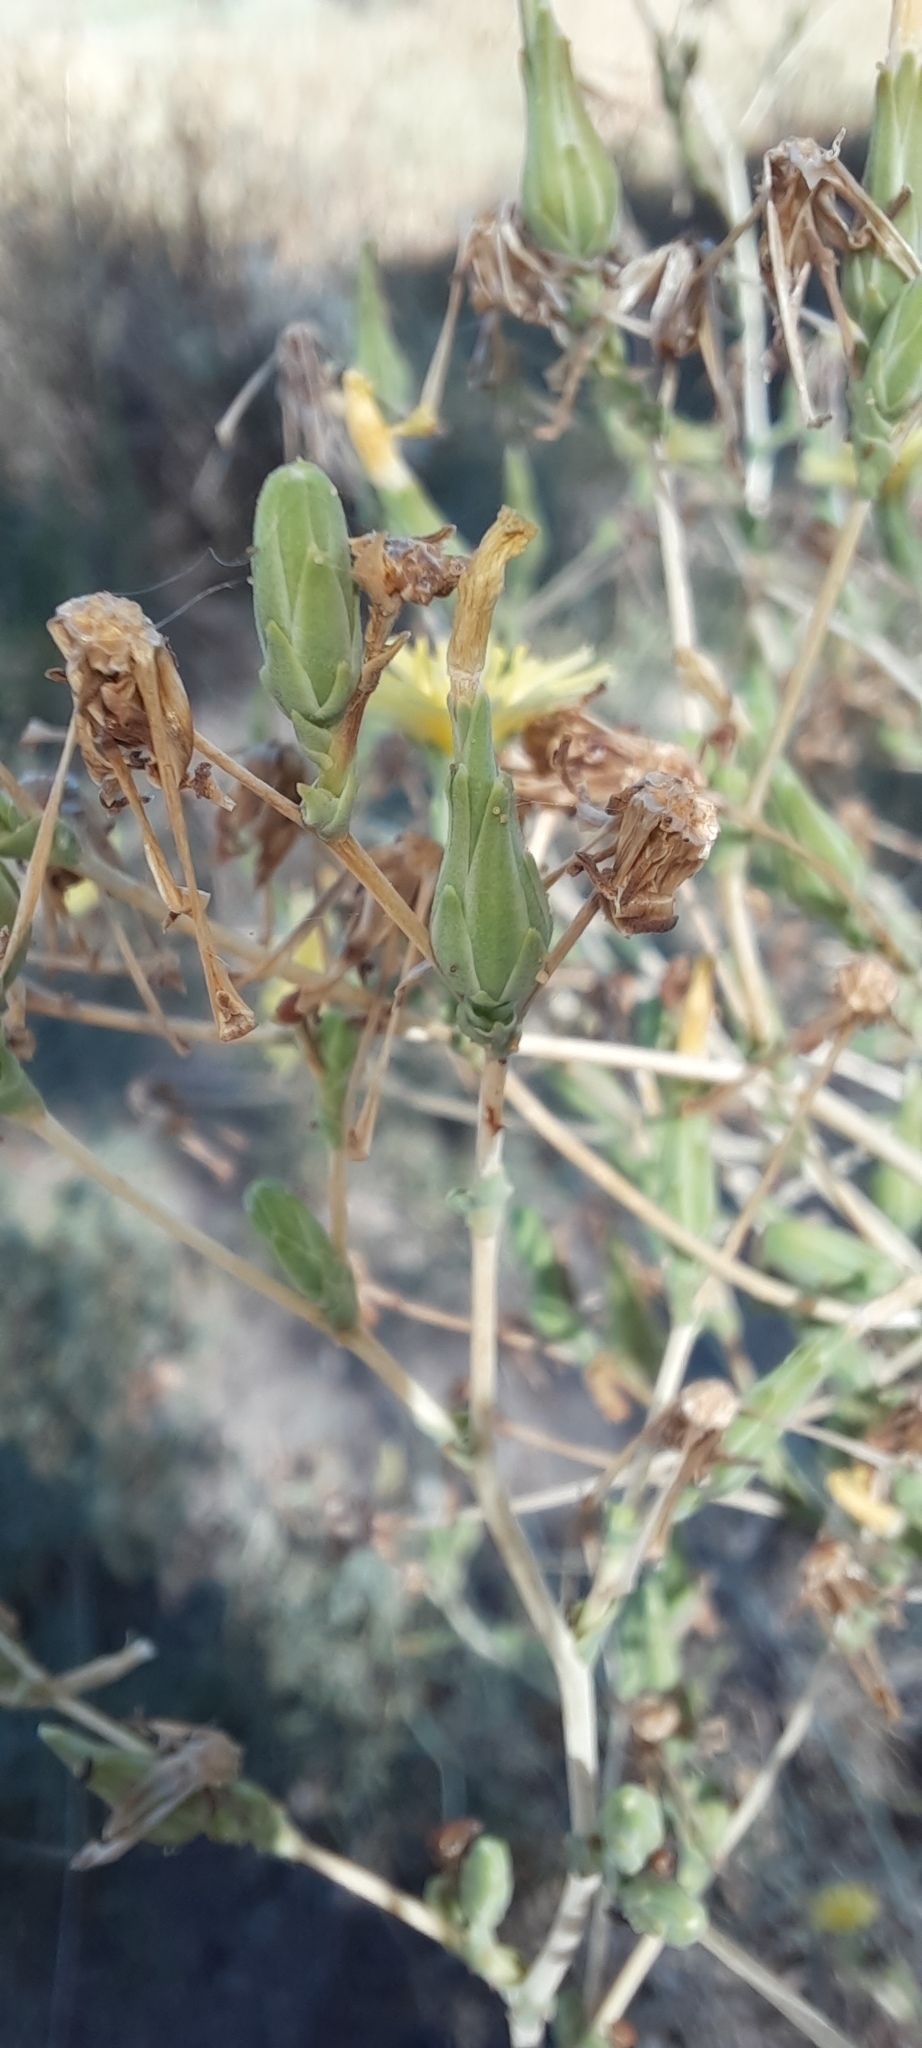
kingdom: Plantae
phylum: Tracheophyta
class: Magnoliopsida
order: Asterales
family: Asteraceae
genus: Lactuca
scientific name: Lactuca serriola
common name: Prickly lettuce
